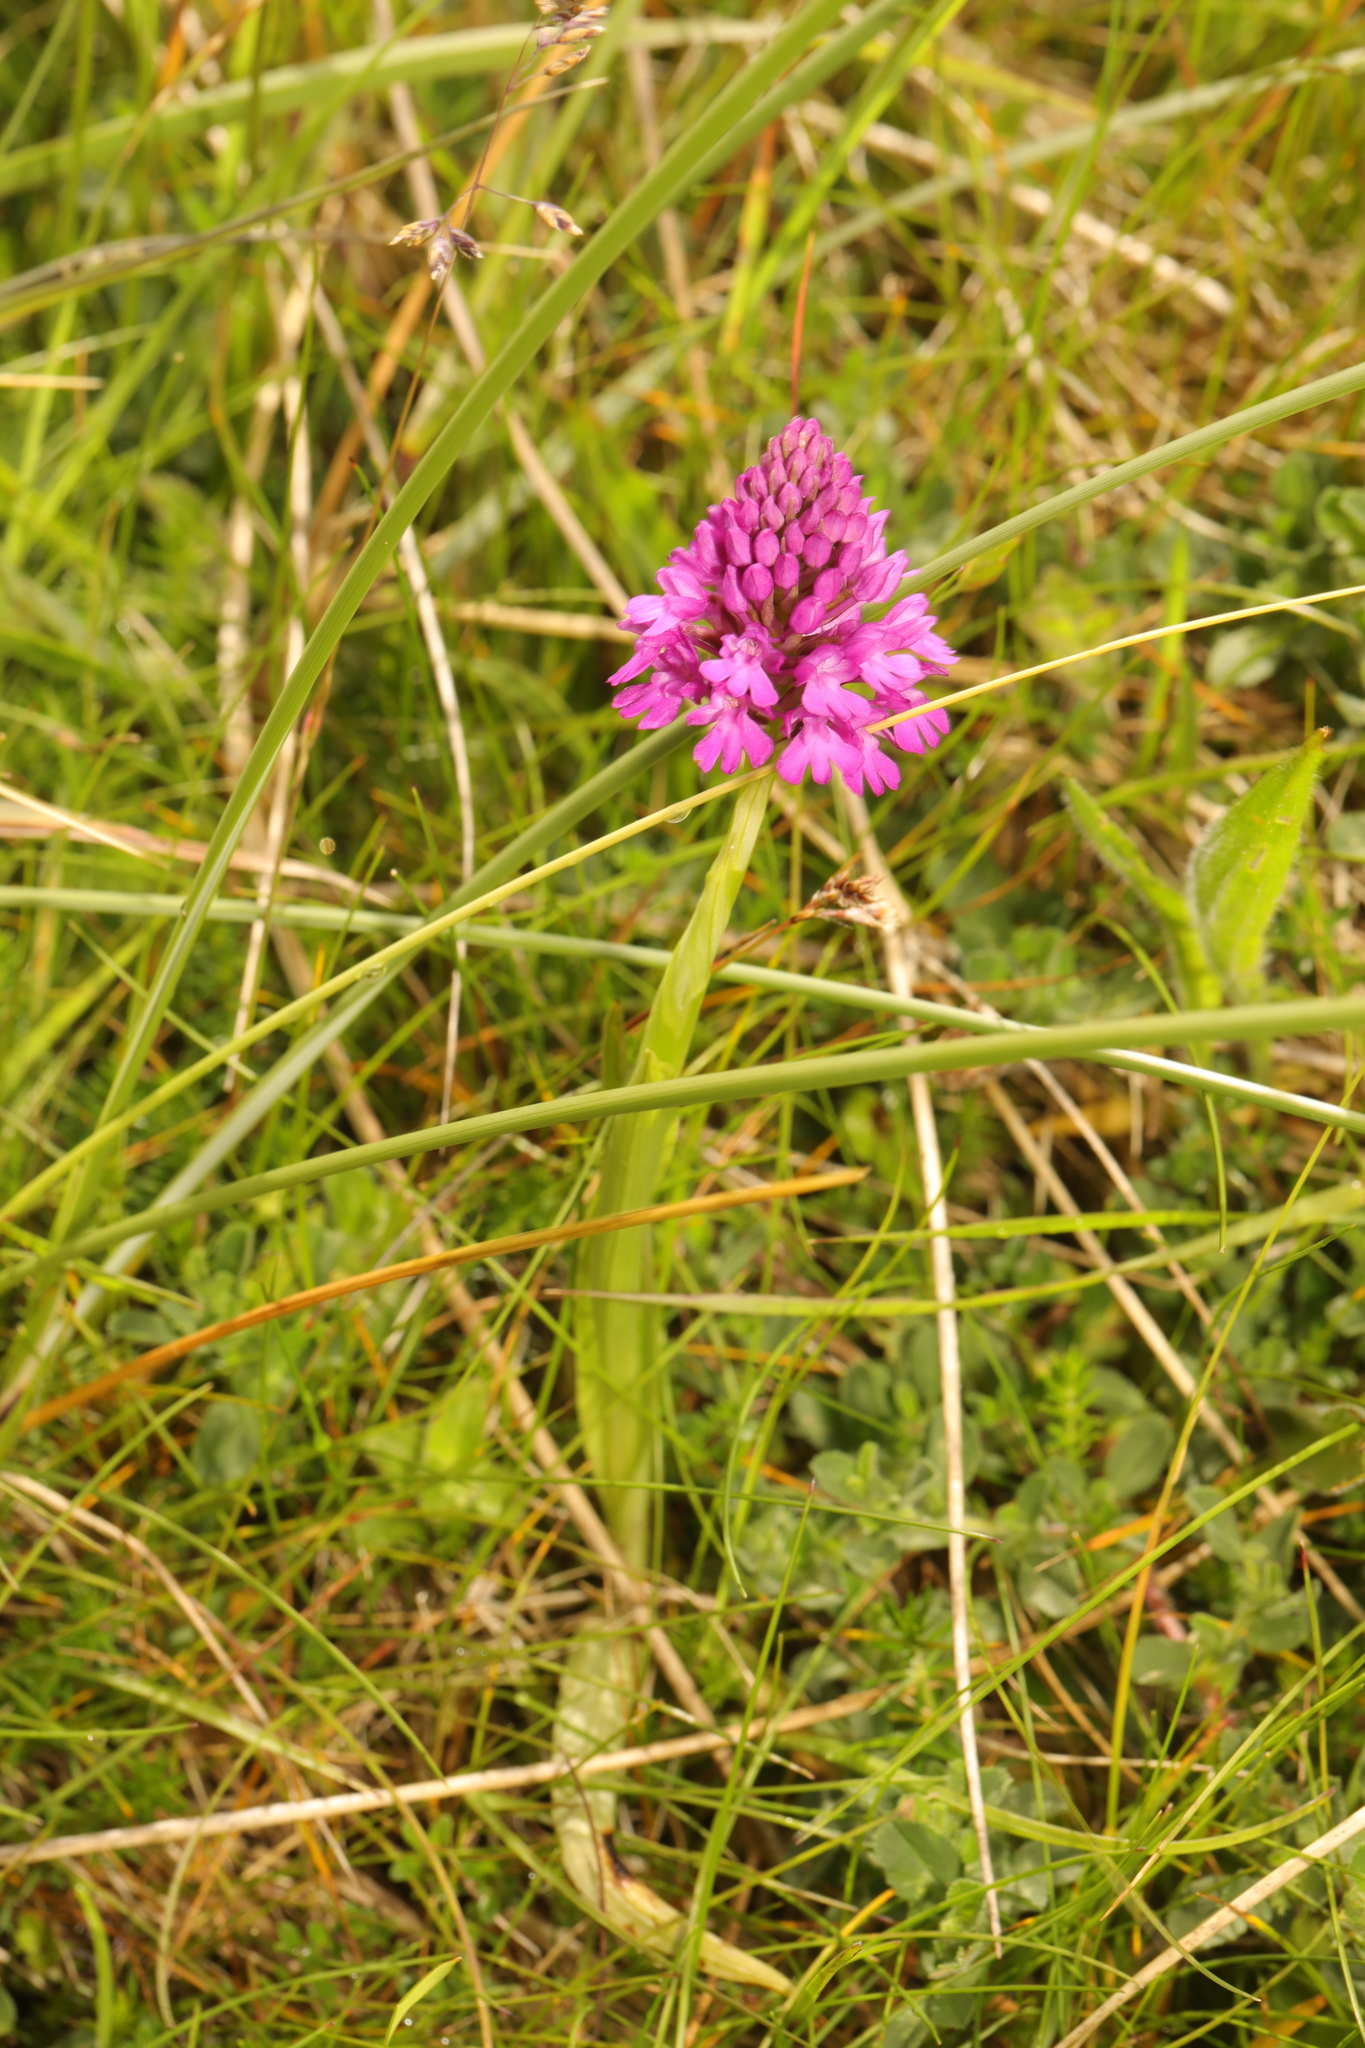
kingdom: Plantae
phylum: Tracheophyta
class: Liliopsida
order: Asparagales
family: Orchidaceae
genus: Anacamptis
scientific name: Anacamptis pyramidalis
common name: Pyramidal orchid
